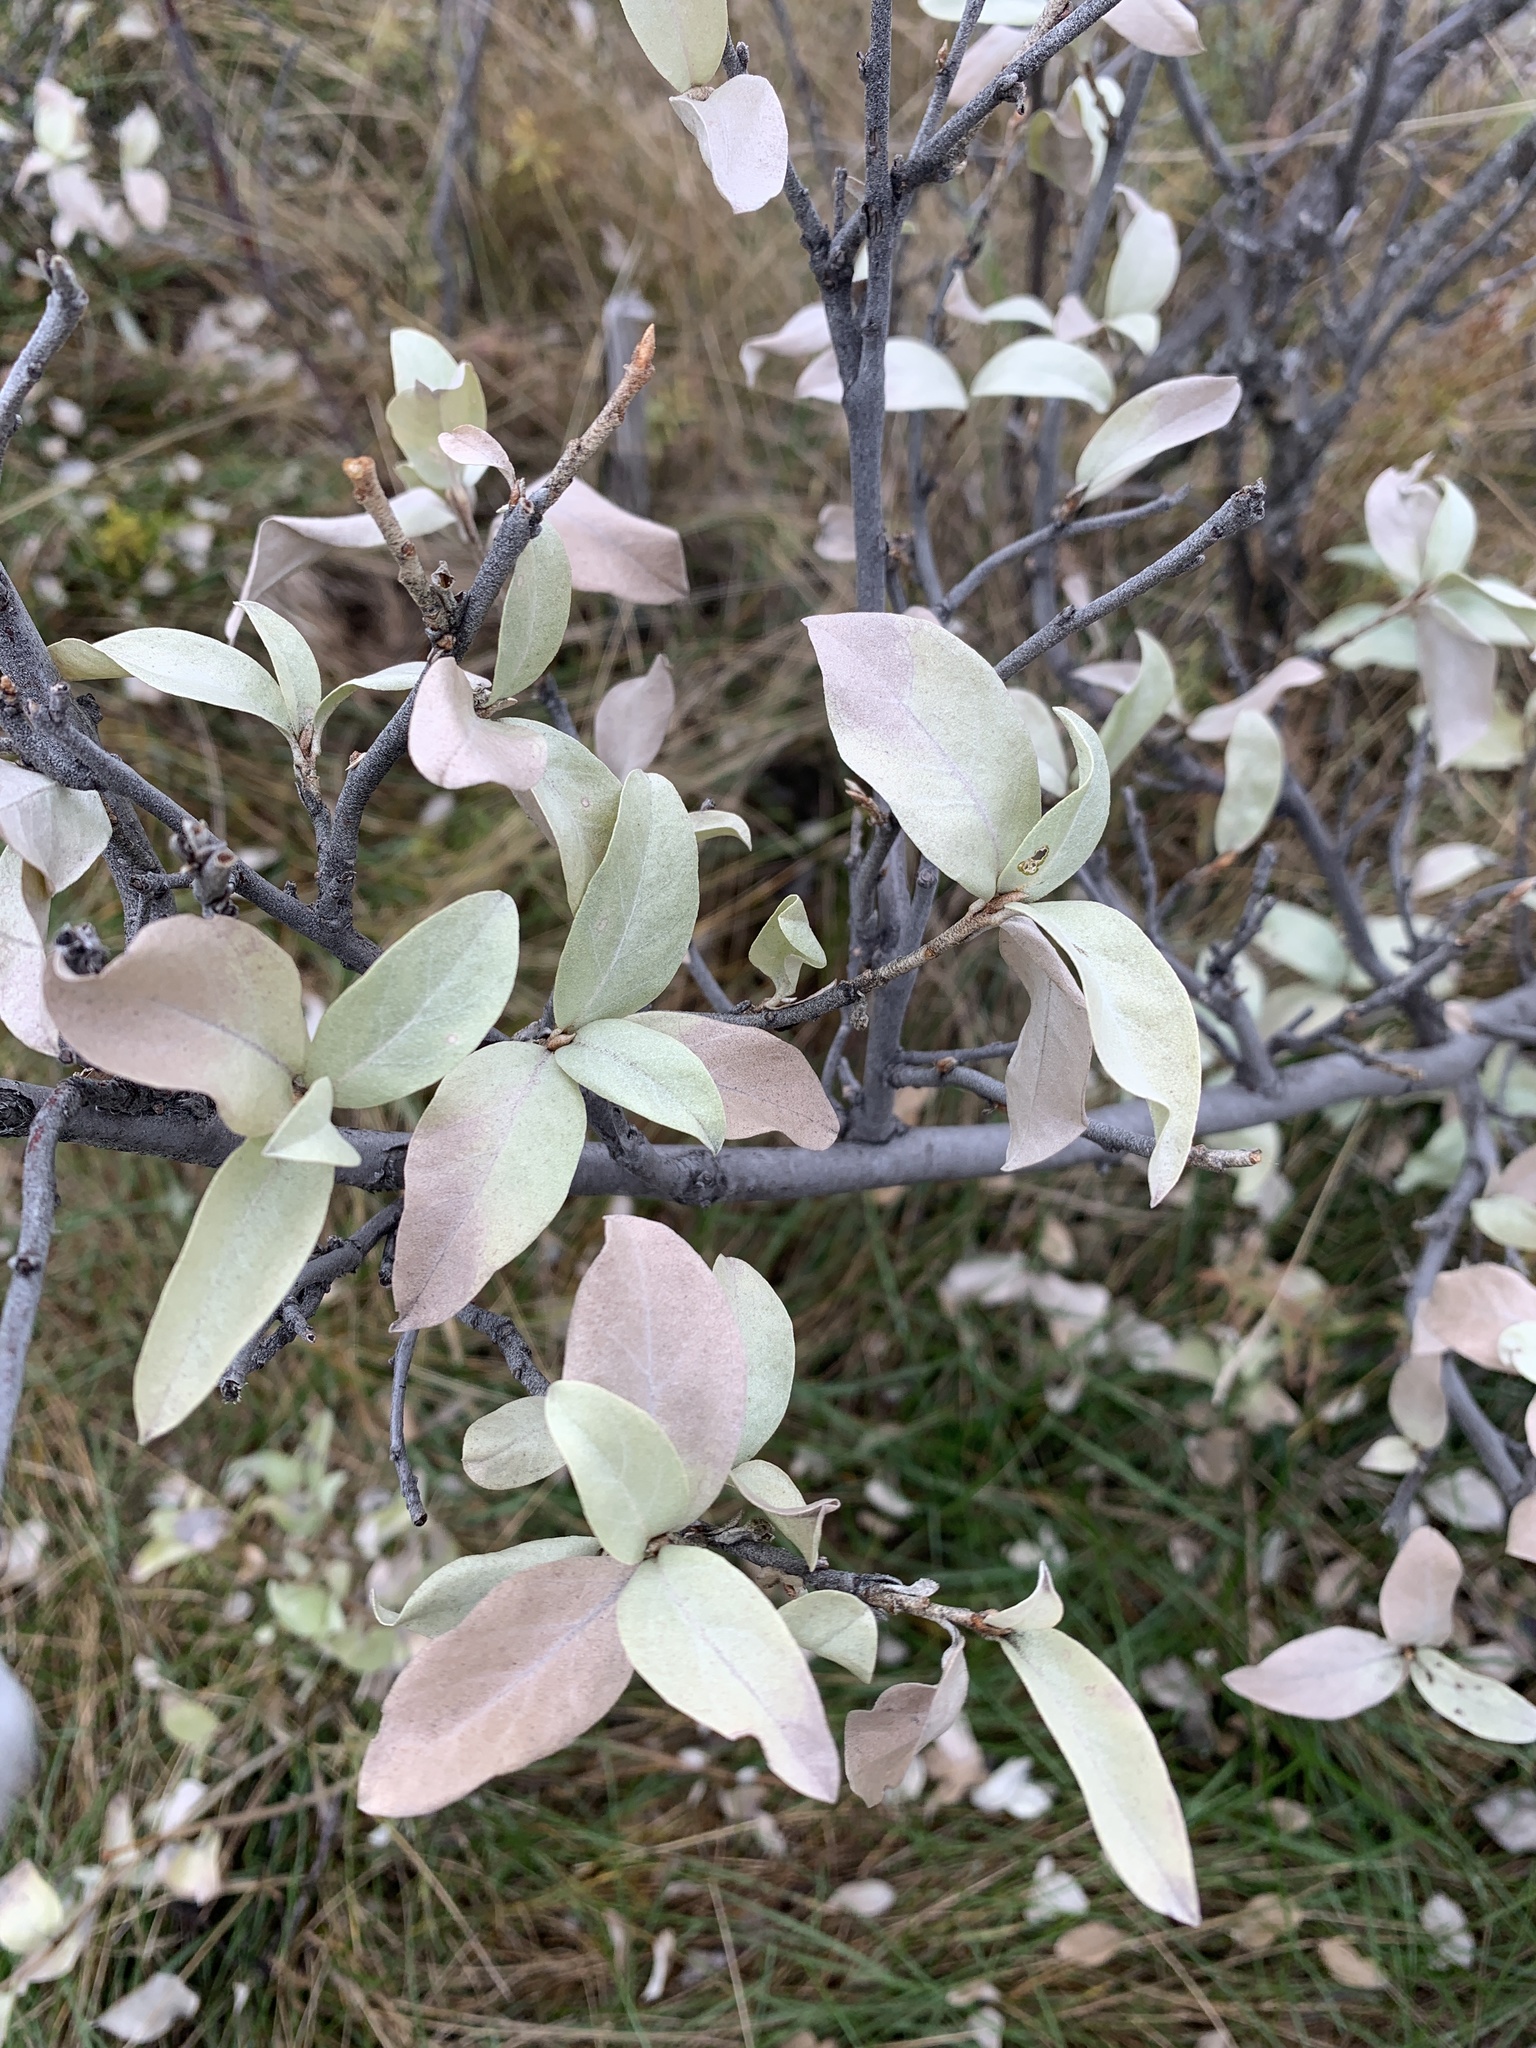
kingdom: Plantae
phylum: Tracheophyta
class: Magnoliopsida
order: Rosales
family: Elaeagnaceae
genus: Elaeagnus
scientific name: Elaeagnus commutata
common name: Silverberry
